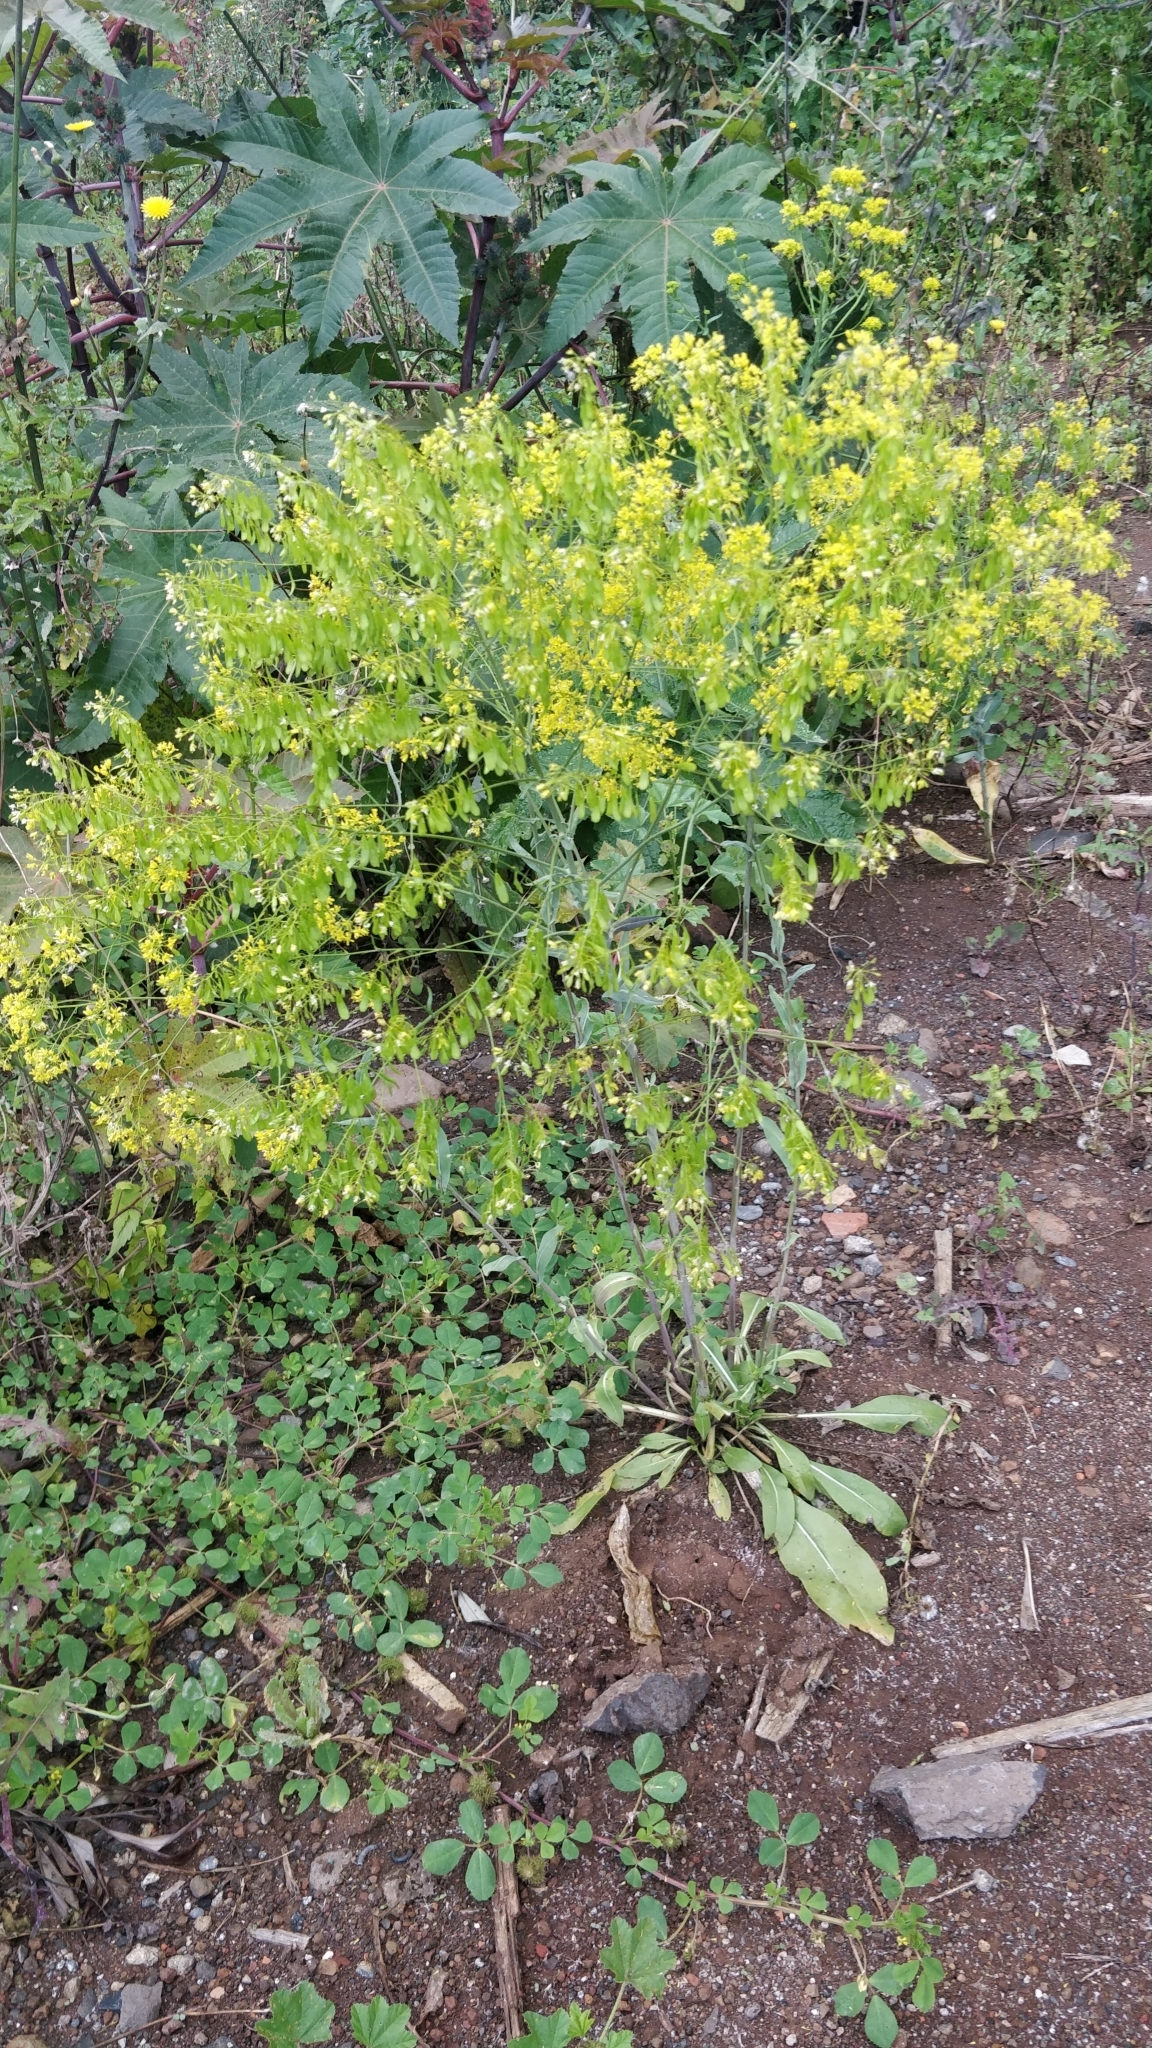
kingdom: Plantae
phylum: Tracheophyta
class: Magnoliopsida
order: Brassicales
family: Brassicaceae
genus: Isatis
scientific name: Isatis tinctoria
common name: Woad
